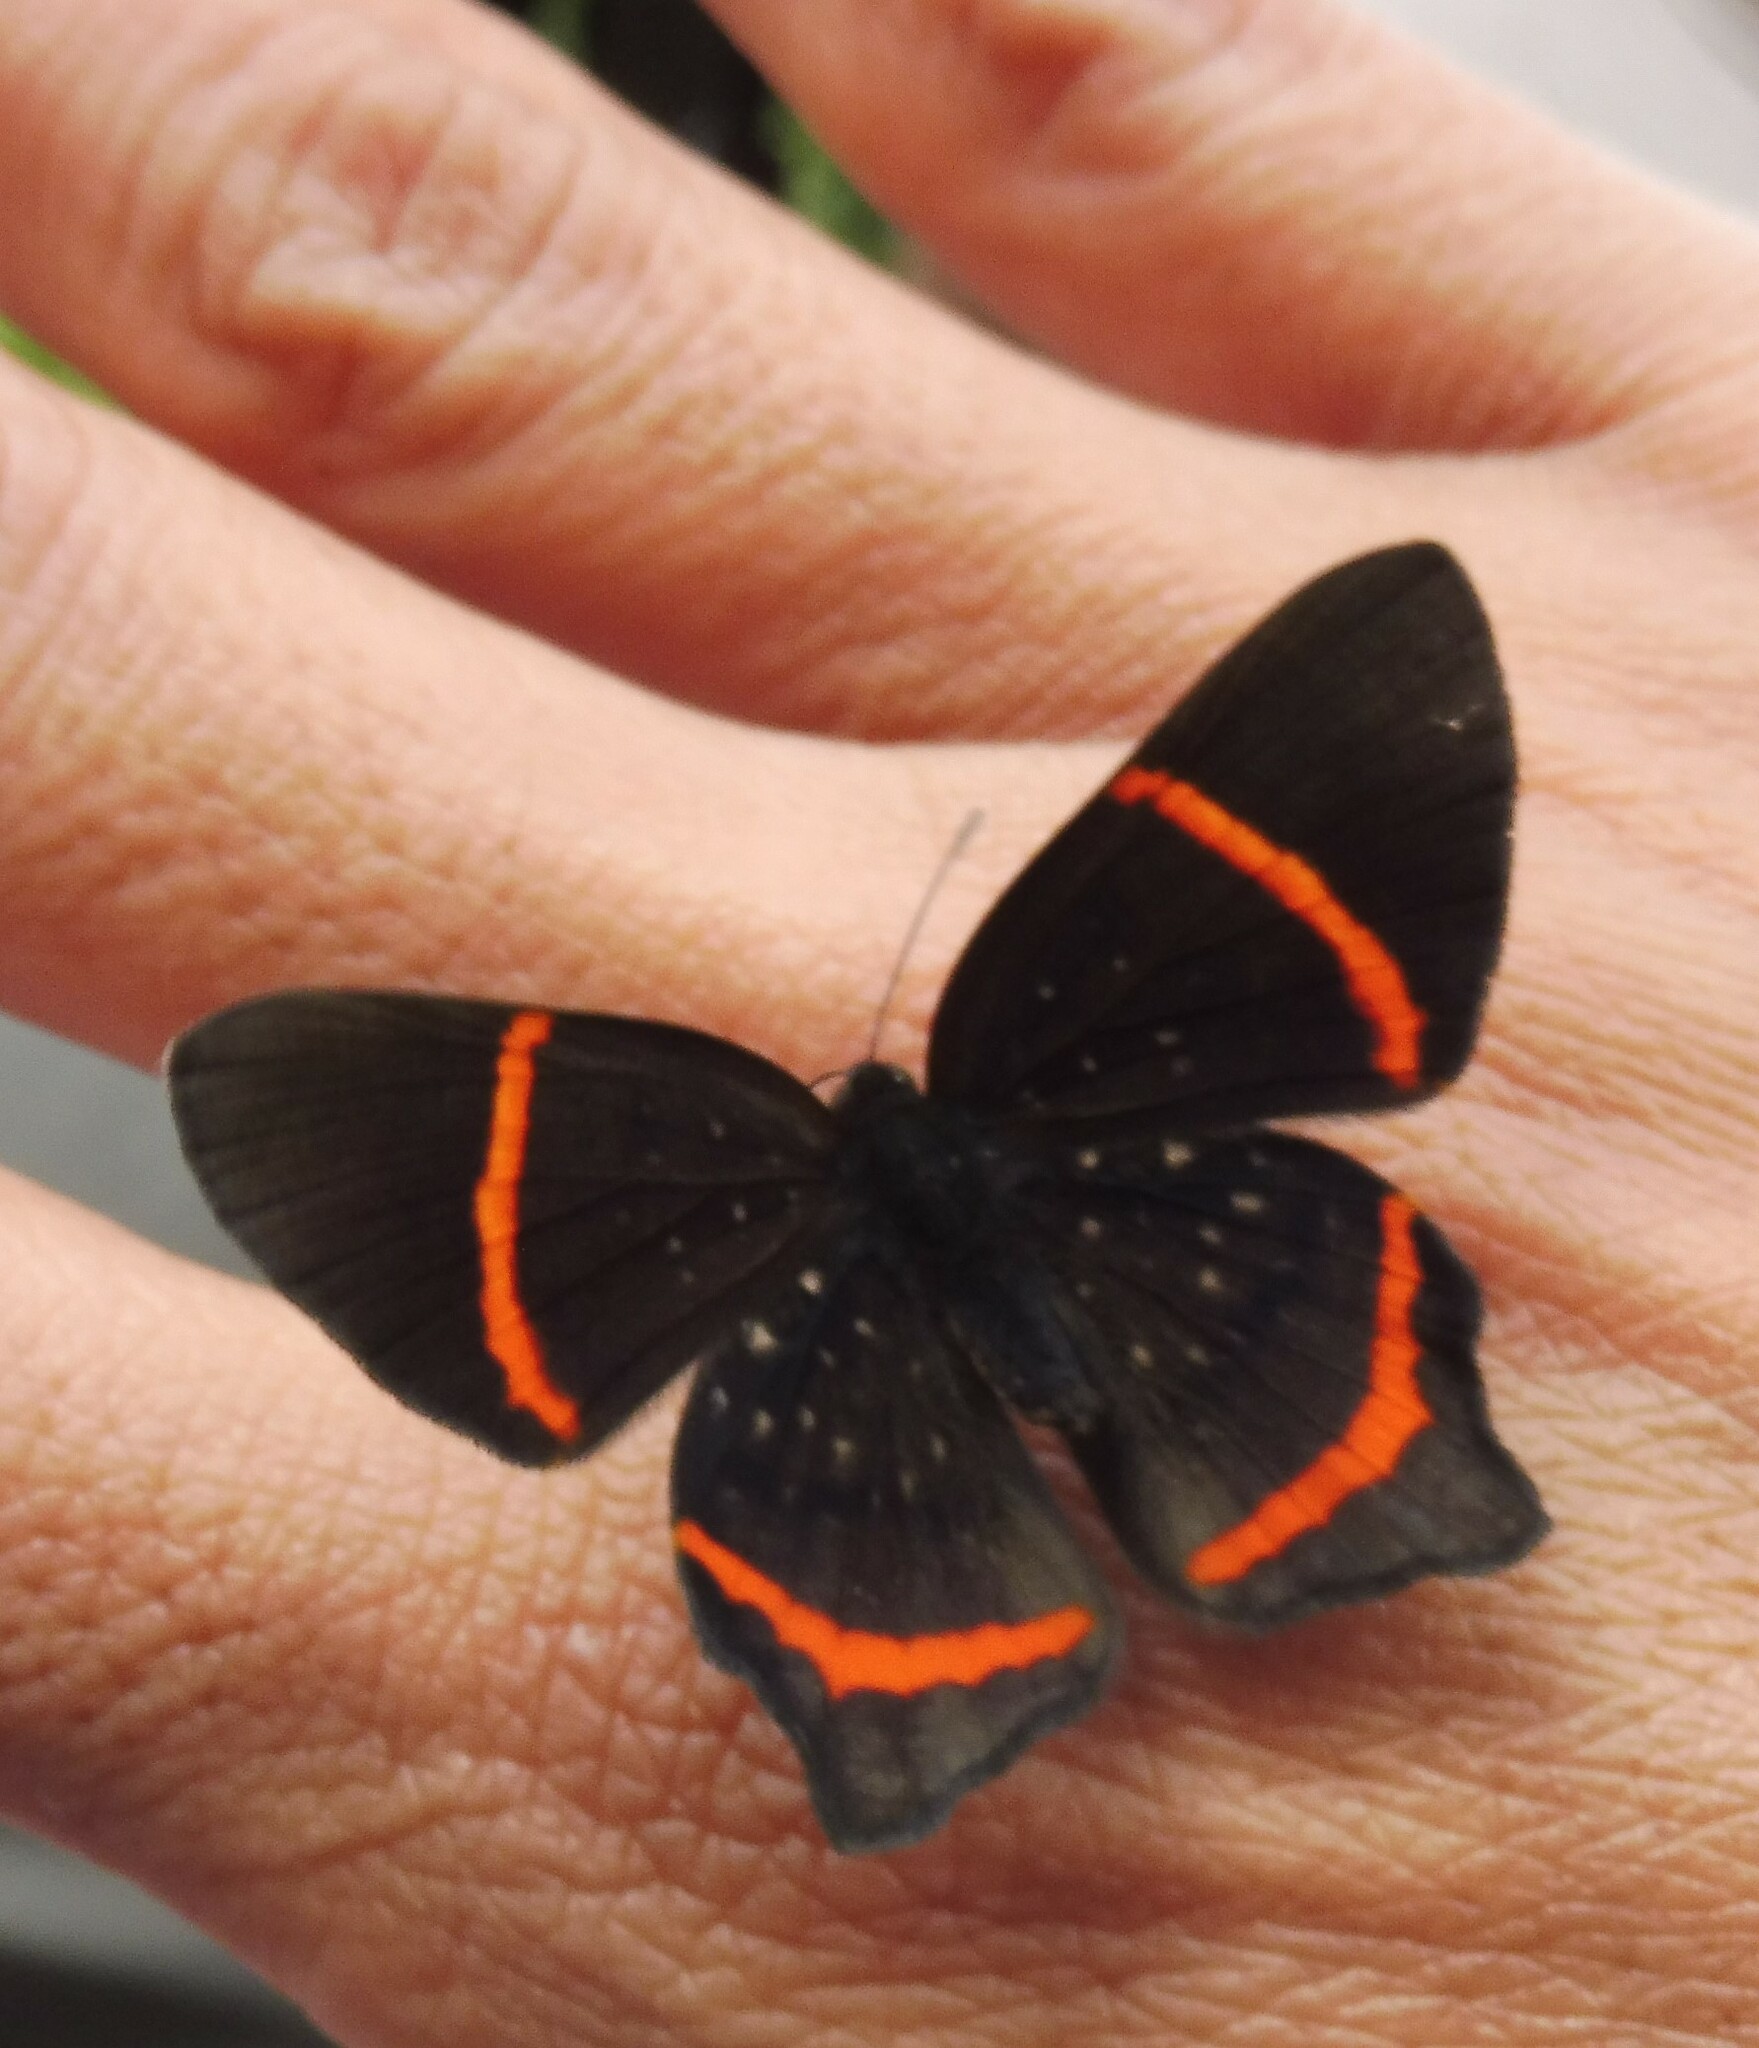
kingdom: Animalia
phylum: Arthropoda
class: Insecta
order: Lepidoptera
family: Riodinidae
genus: Riodina
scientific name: Riodina lysippus
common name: Lysippus metalmark
